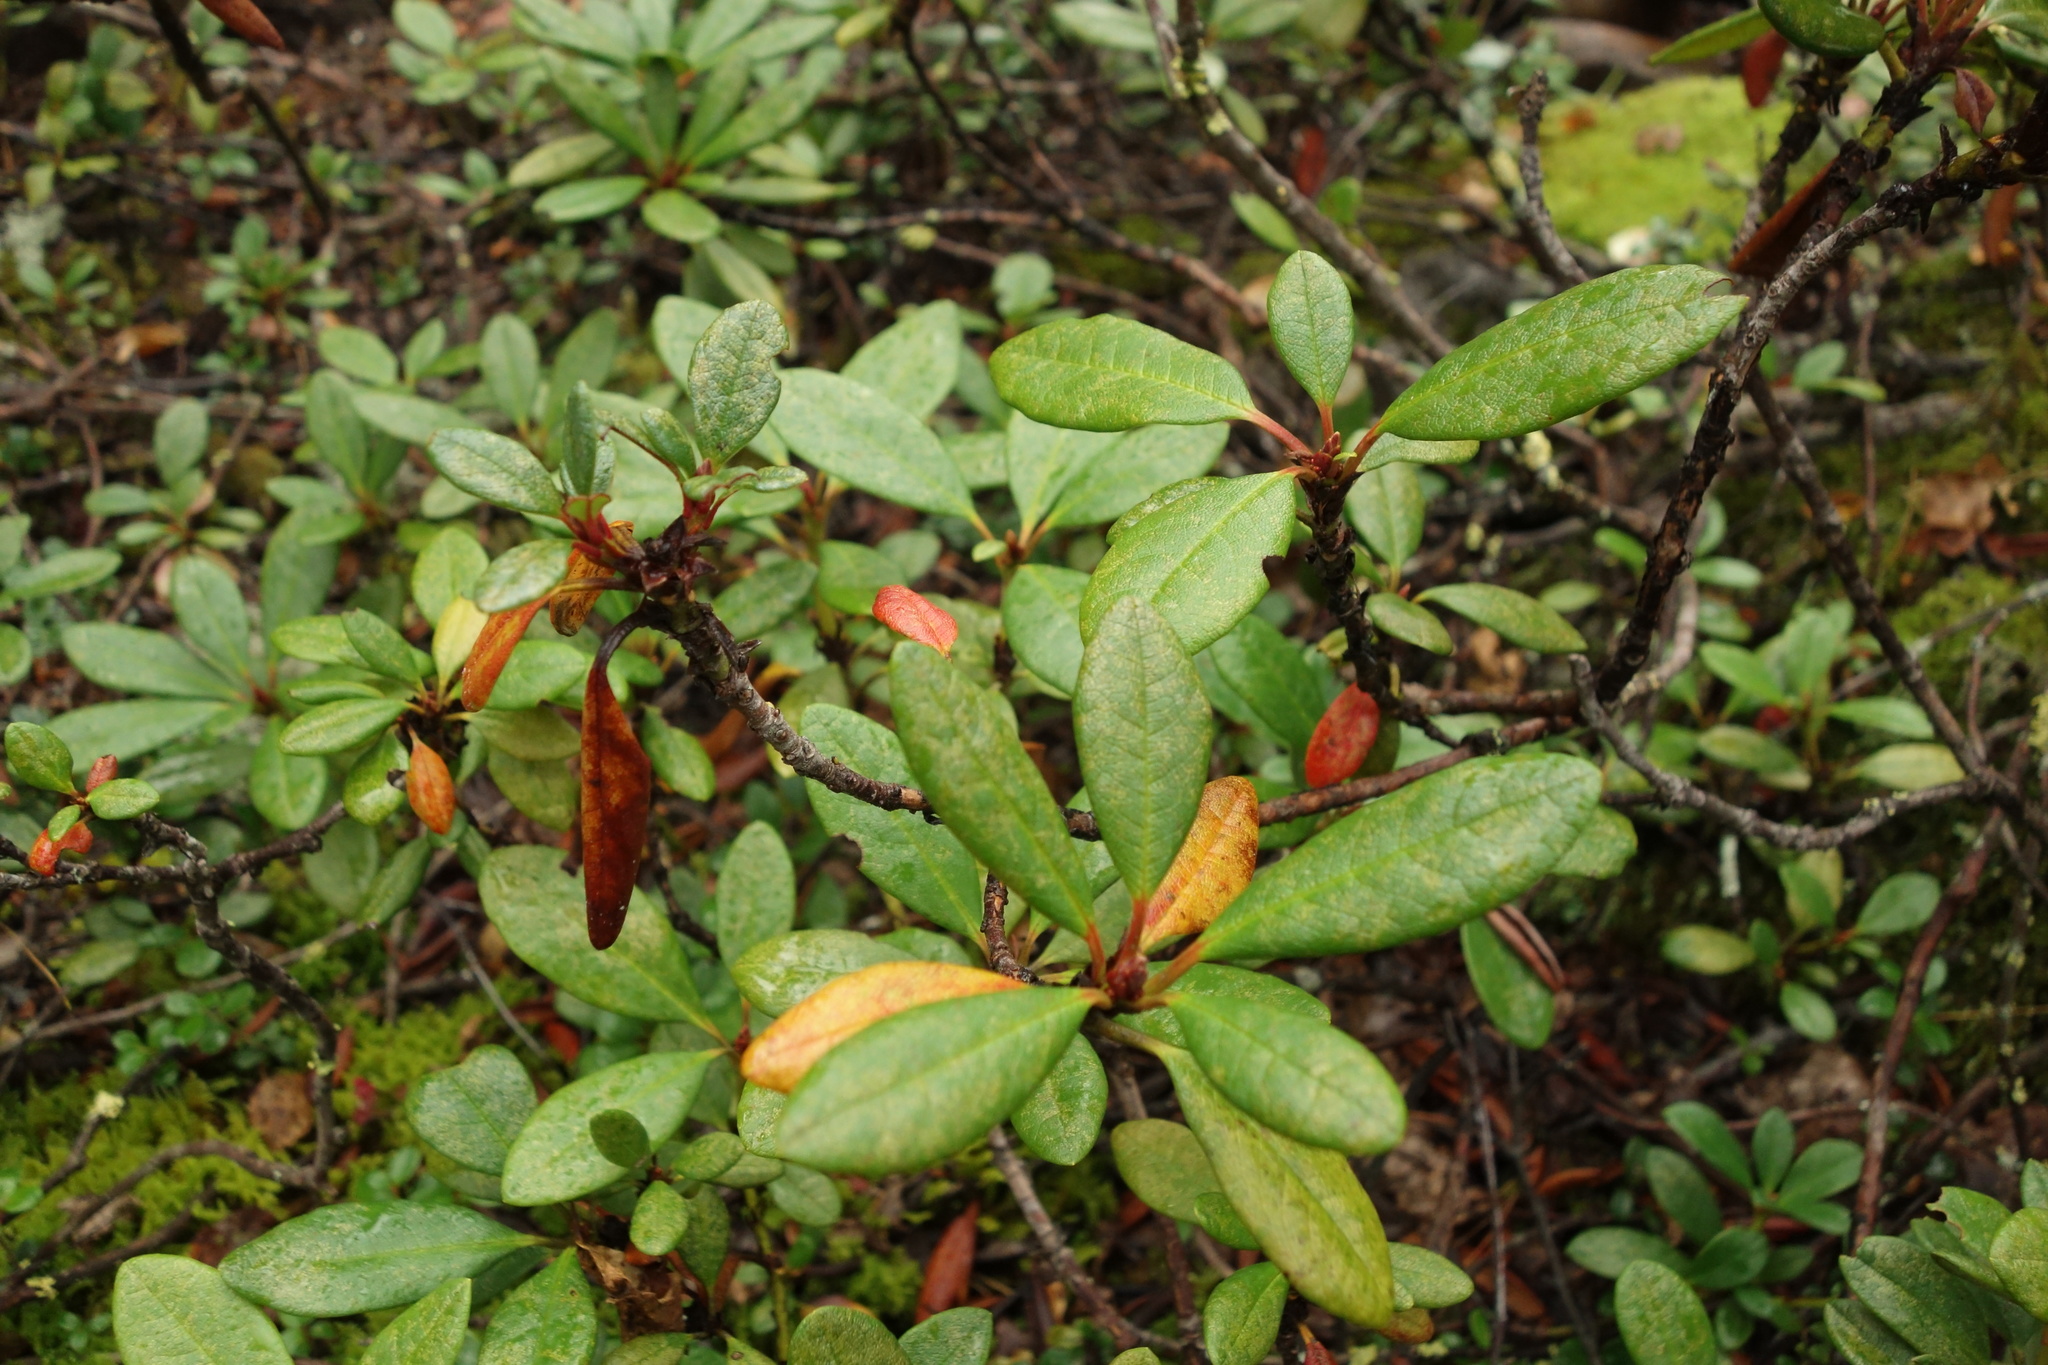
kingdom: Plantae
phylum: Tracheophyta
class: Magnoliopsida
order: Ericales
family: Ericaceae
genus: Rhododendron
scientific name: Rhododendron aureum
